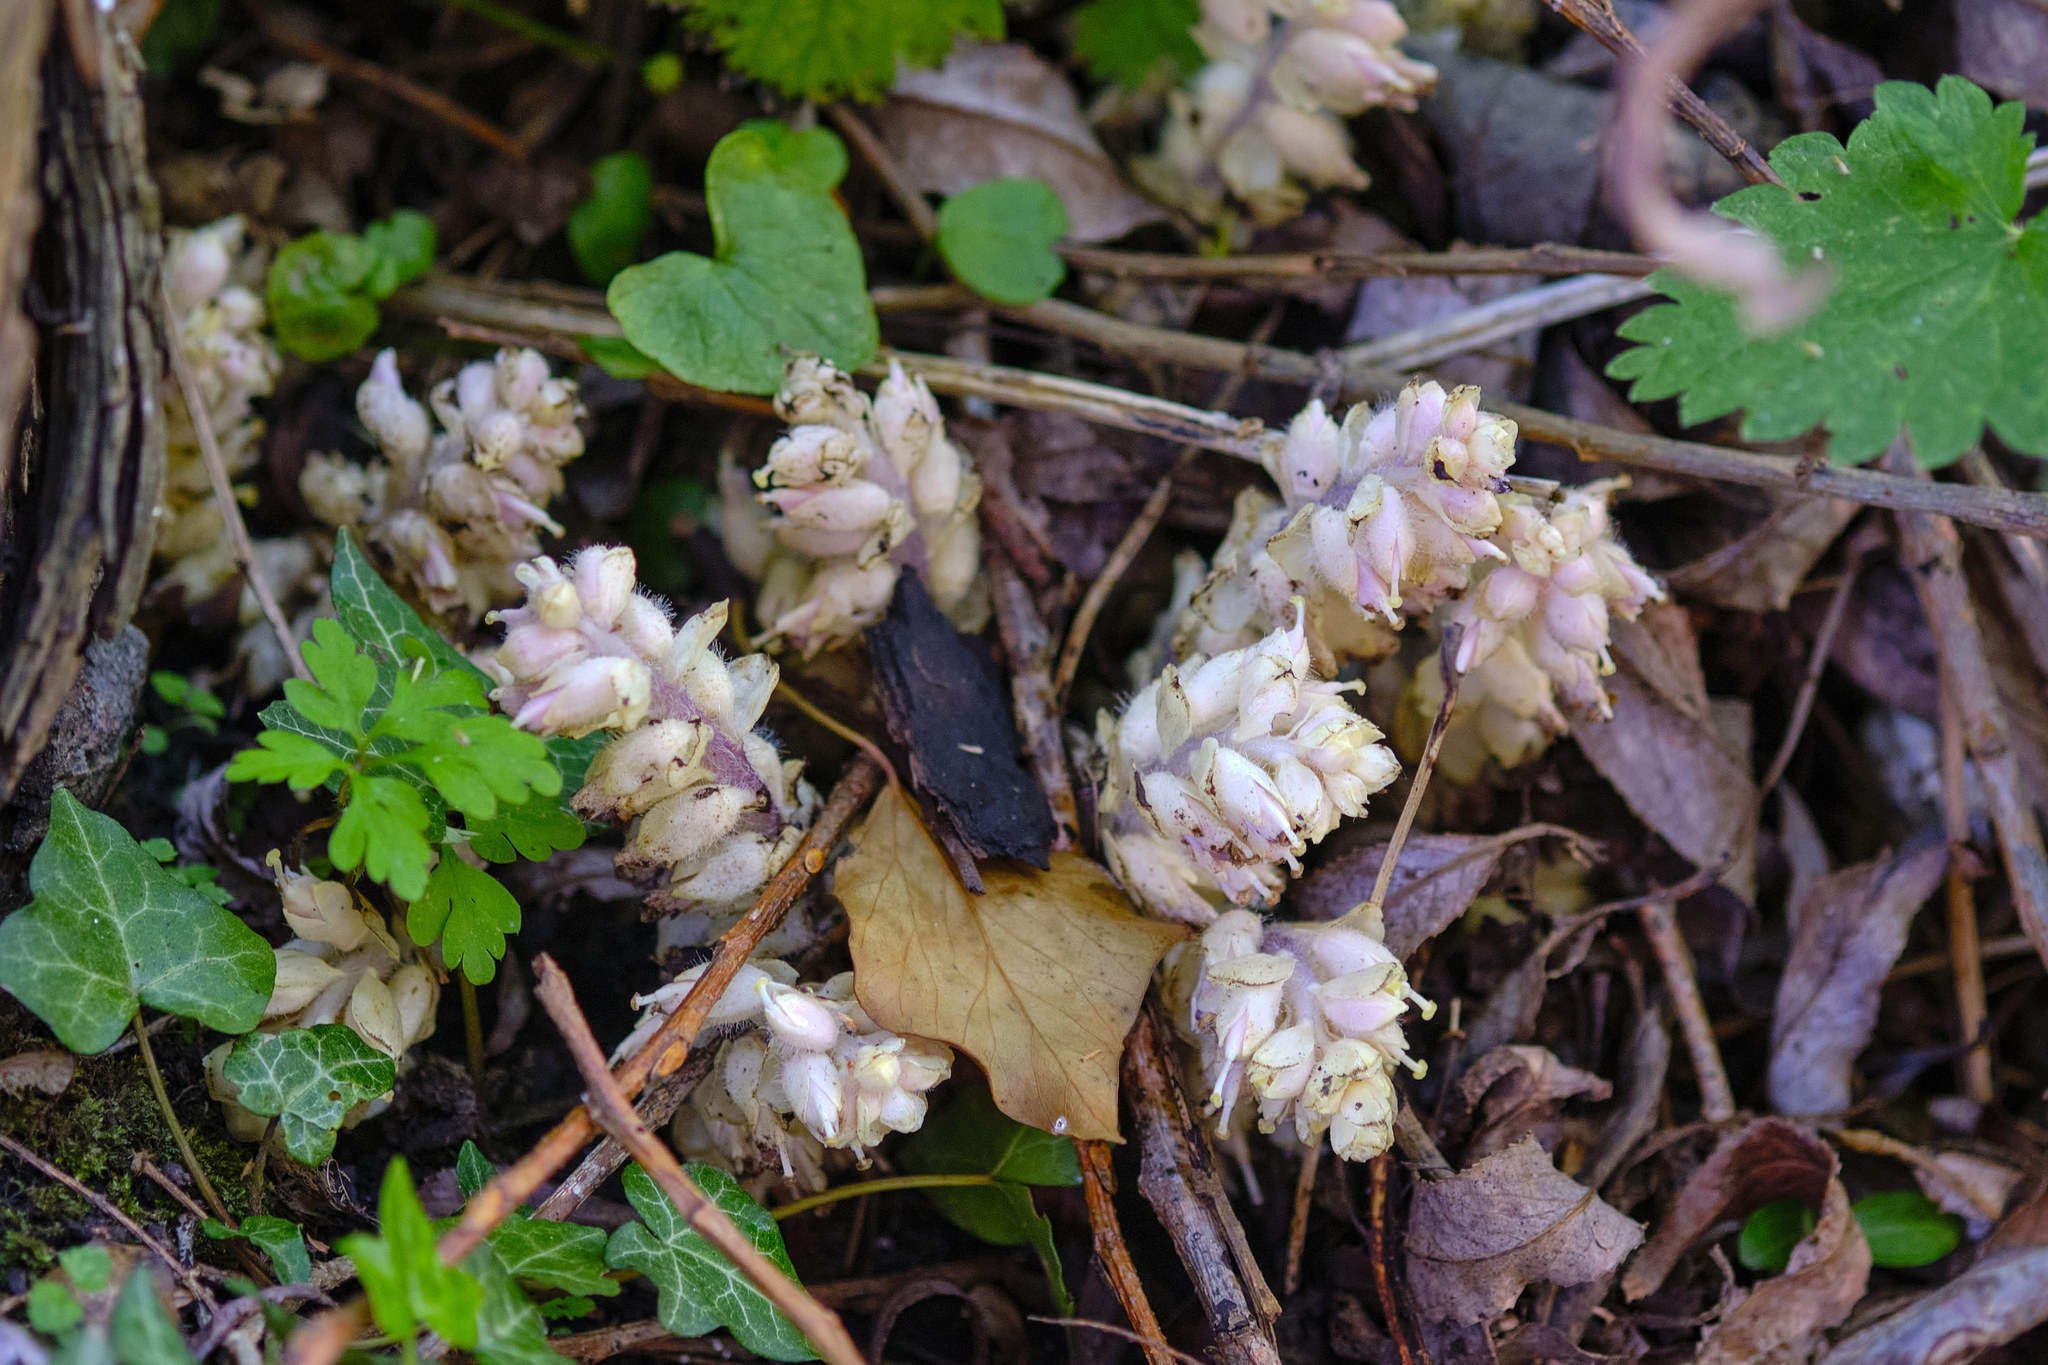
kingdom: Plantae
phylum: Tracheophyta
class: Magnoliopsida
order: Lamiales
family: Orobanchaceae
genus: Lathraea
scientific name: Lathraea squamaria
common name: Toothwort
